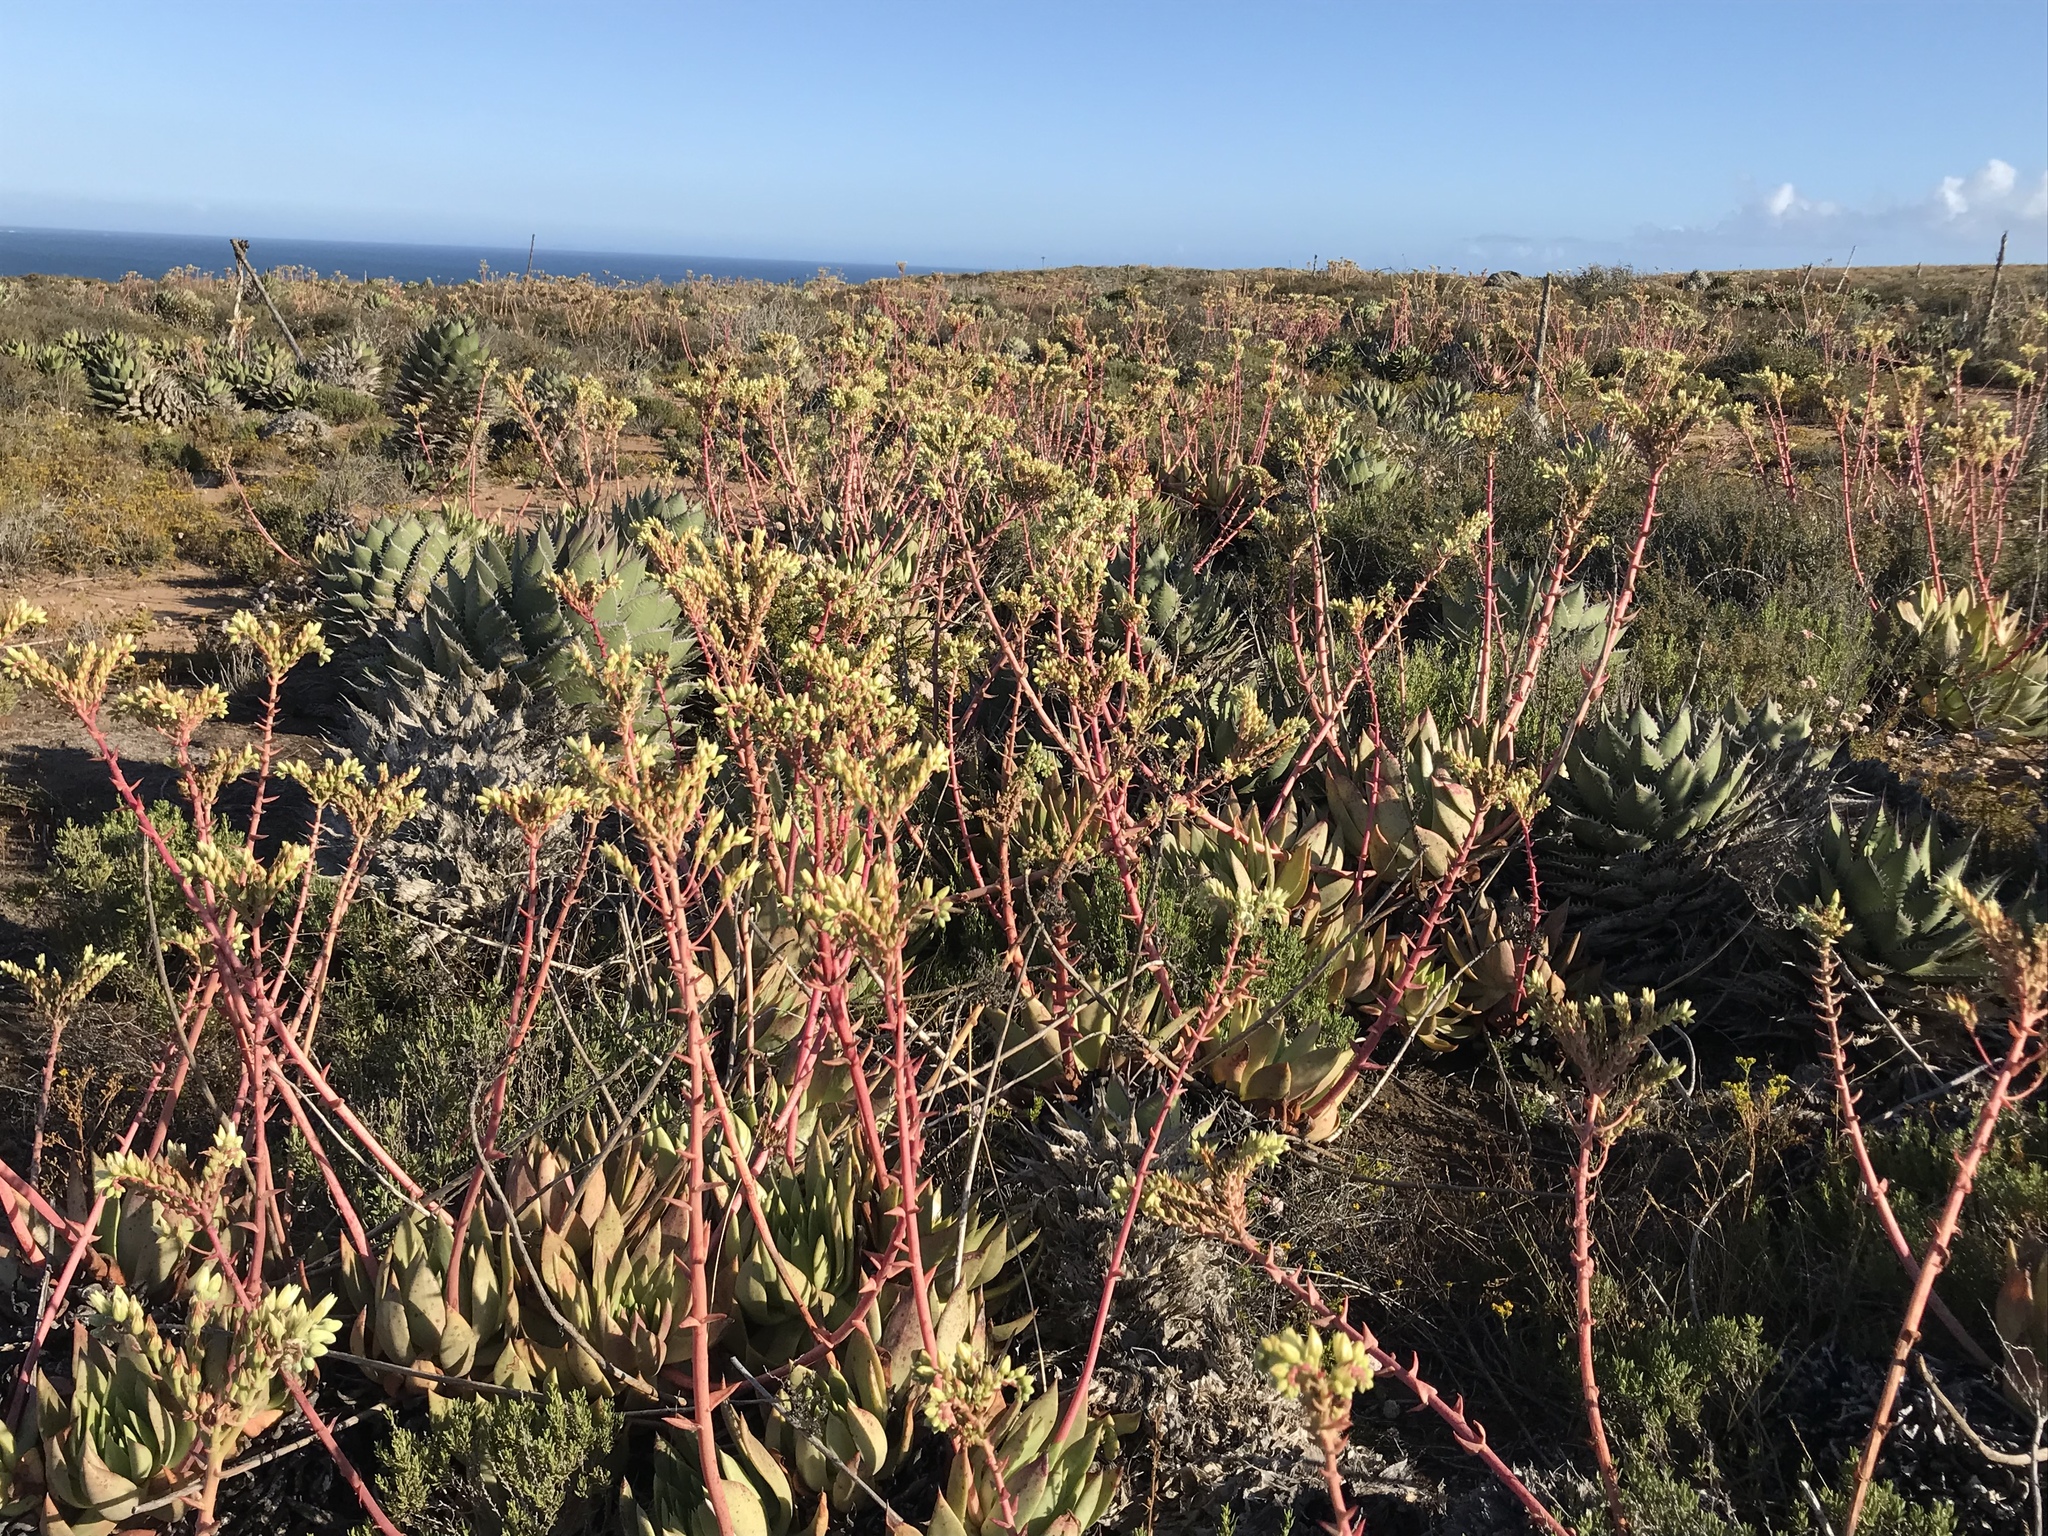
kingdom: Plantae
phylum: Tracheophyta
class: Magnoliopsida
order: Saxifragales
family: Crassulaceae
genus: Dudleya
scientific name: Dudleya ingens
